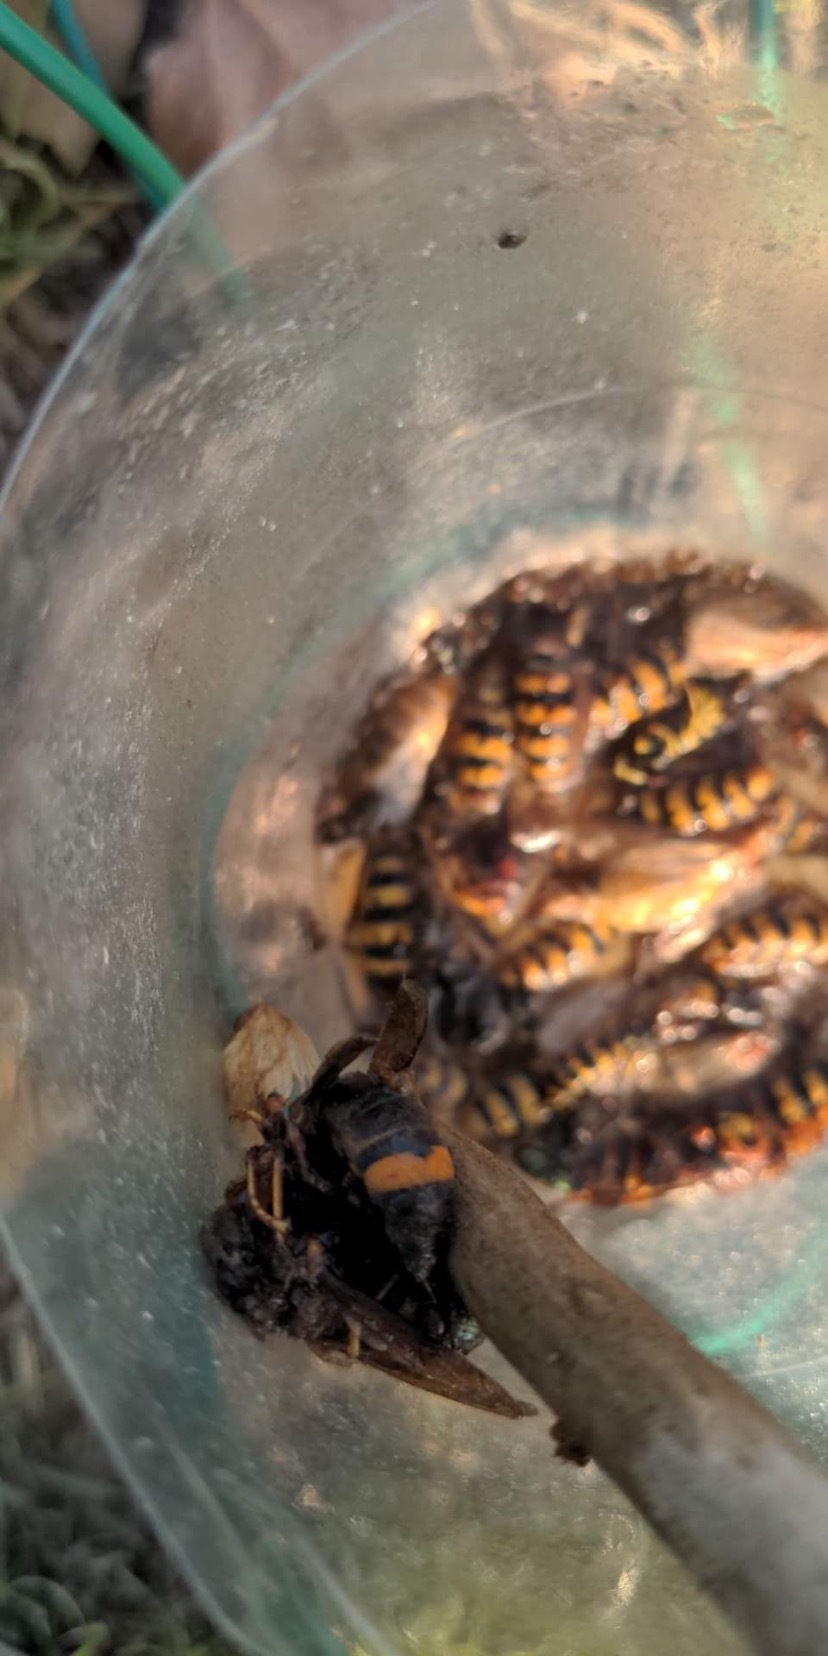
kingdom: Animalia
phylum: Arthropoda
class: Insecta
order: Hymenoptera
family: Vespidae
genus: Vespa
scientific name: Vespa velutina
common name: Asian hornet
